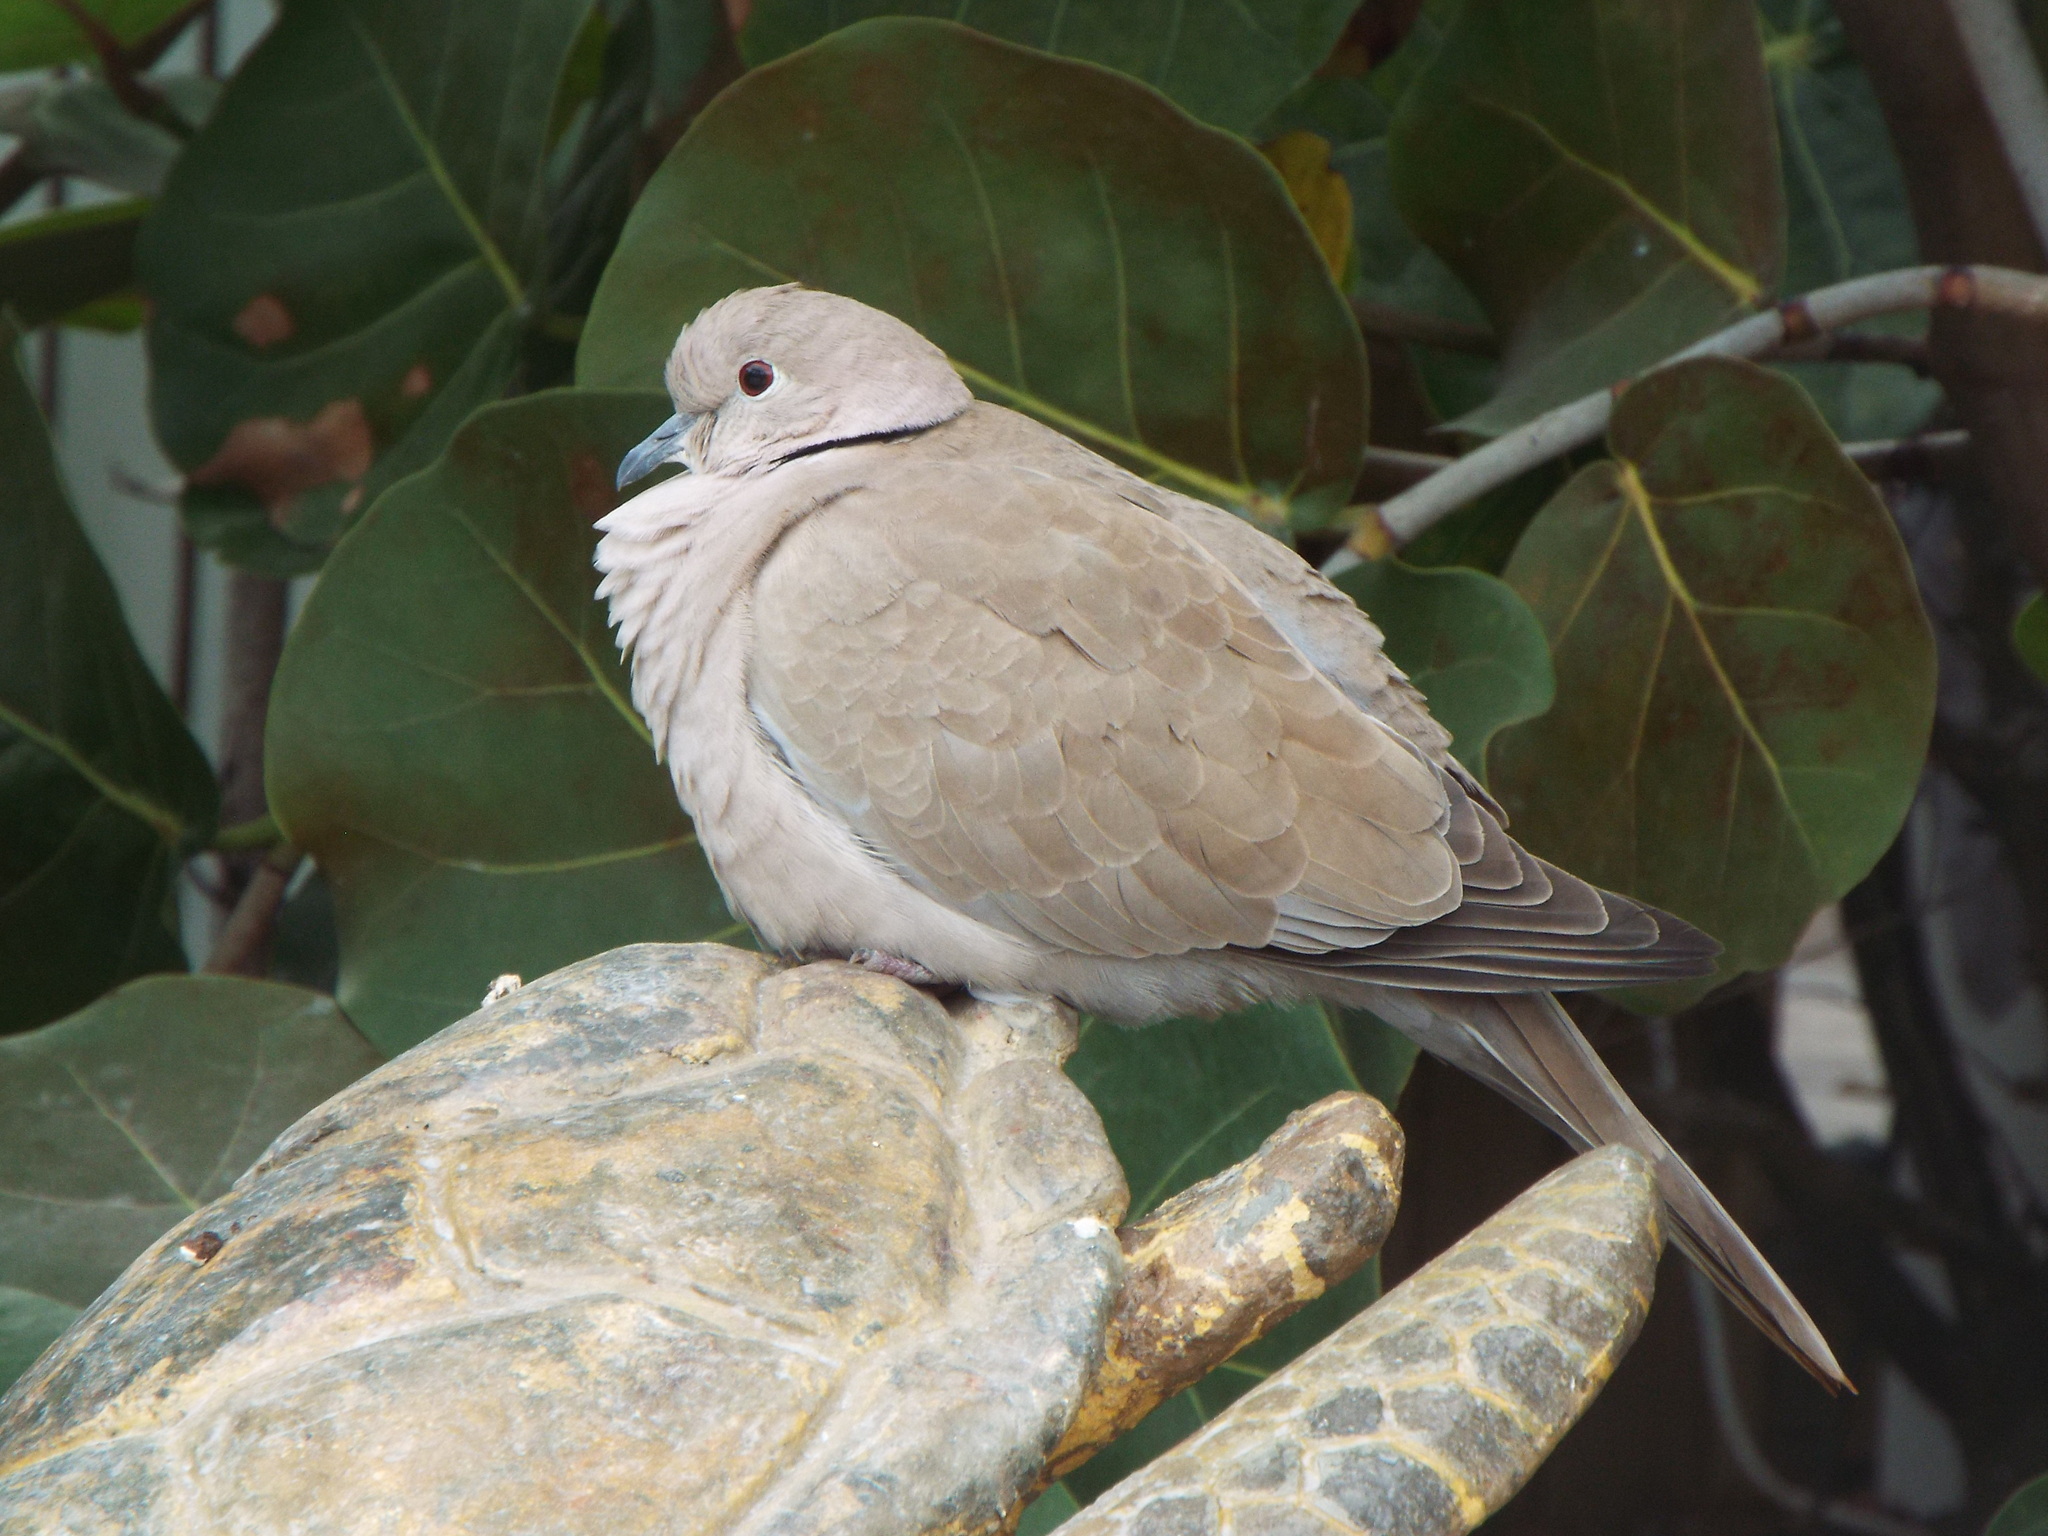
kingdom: Animalia
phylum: Chordata
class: Aves
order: Columbiformes
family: Columbidae
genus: Streptopelia
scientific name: Streptopelia decaocto
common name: Eurasian collared dove
